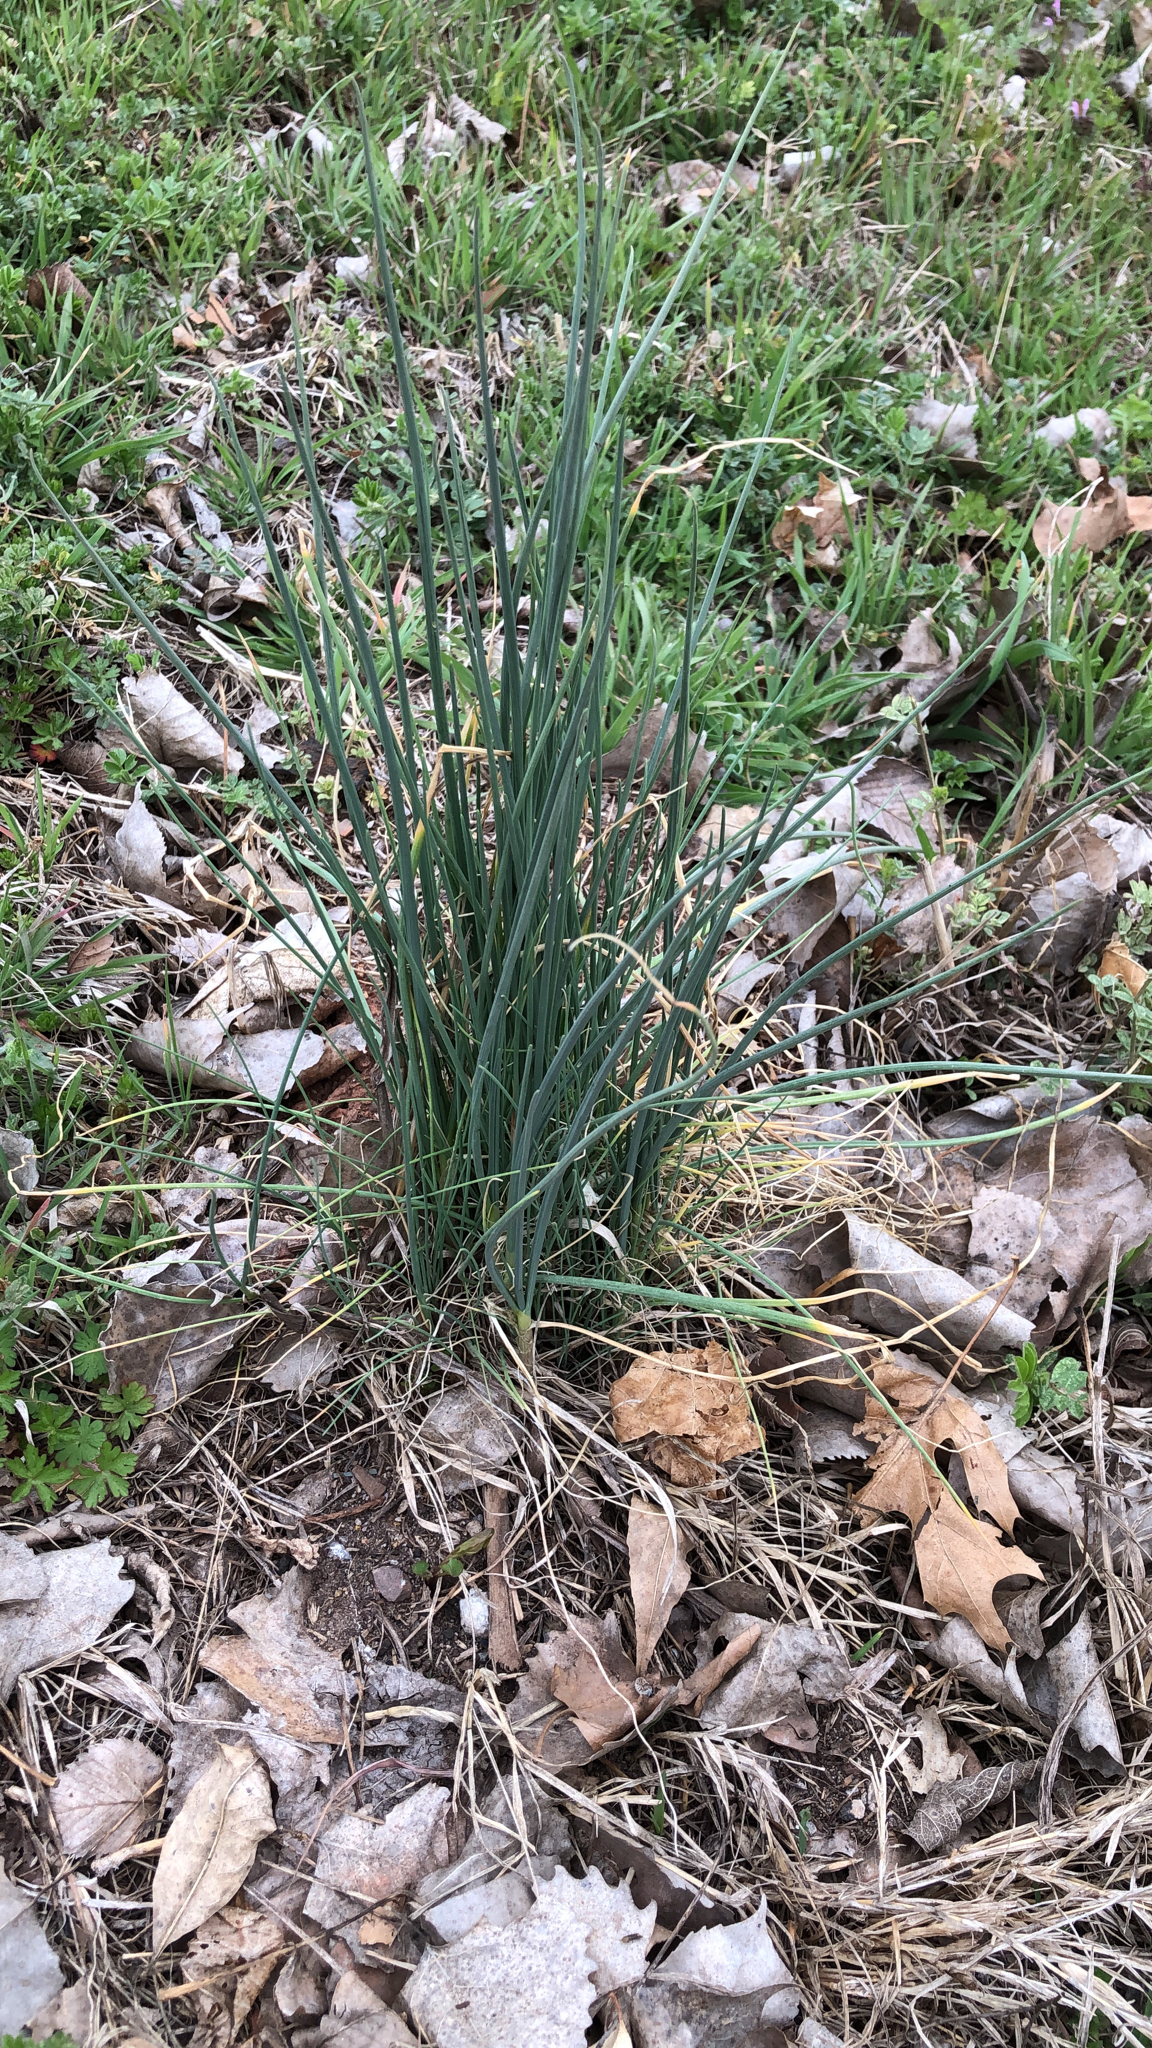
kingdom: Plantae
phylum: Tracheophyta
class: Liliopsida
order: Asparagales
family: Amaryllidaceae
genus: Allium
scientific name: Allium vineale
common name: Crow garlic
